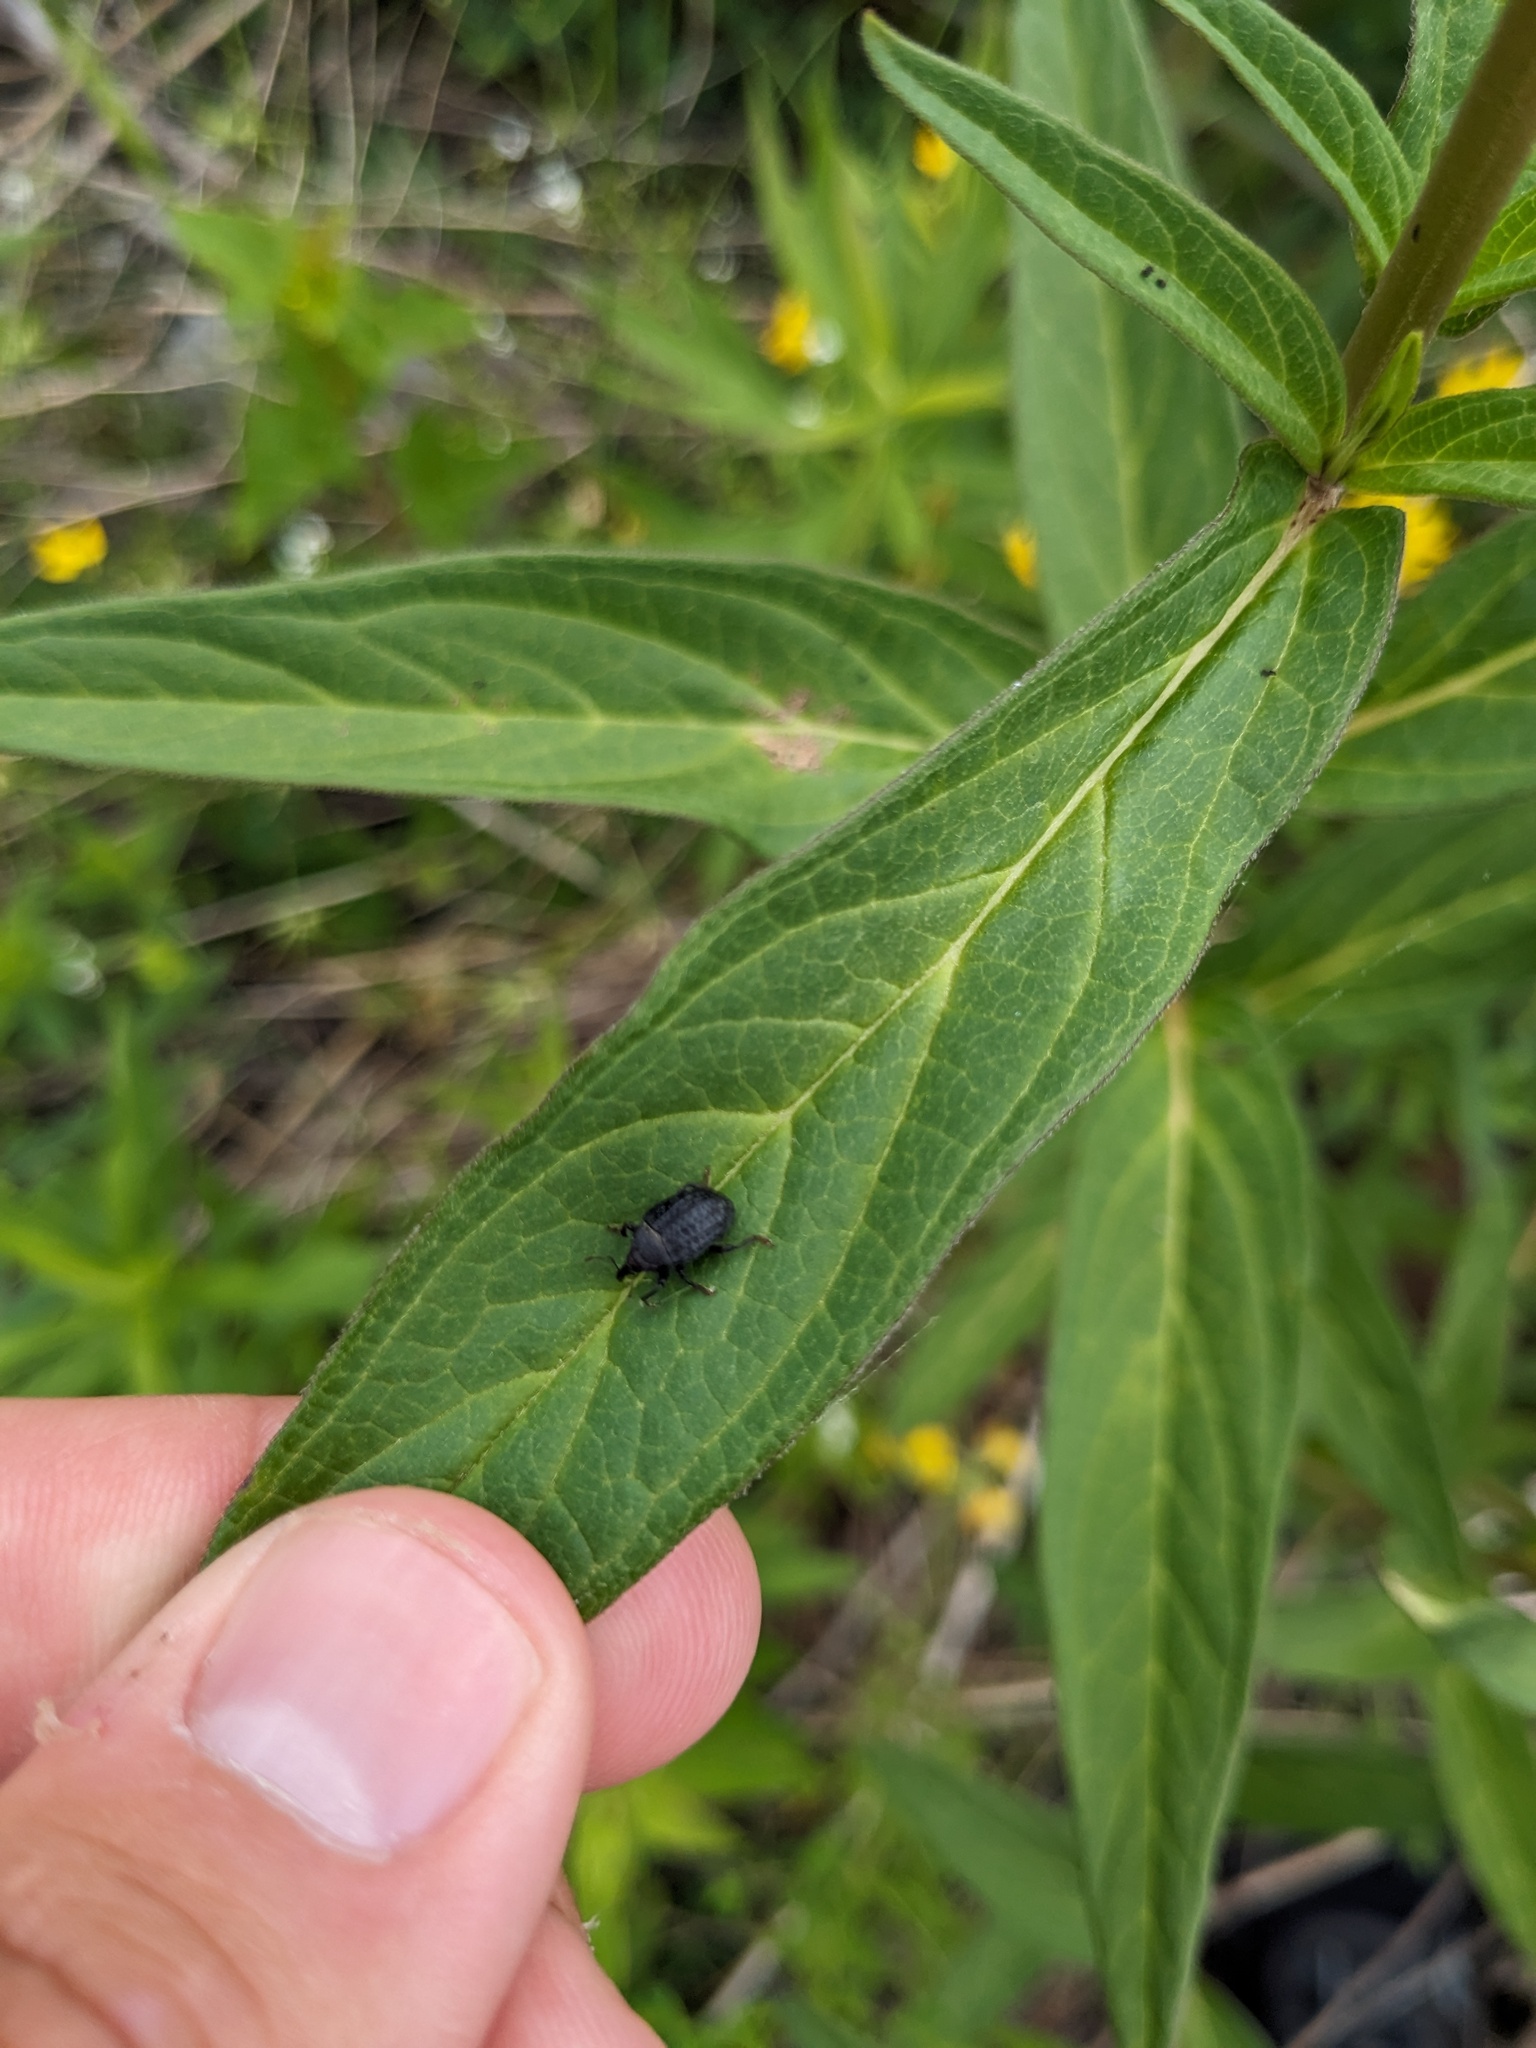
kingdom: Animalia
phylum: Arthropoda
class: Insecta
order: Coleoptera
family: Curculionidae
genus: Rhyssomatus
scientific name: Rhyssomatus lineaticollis
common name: Milkweed stem weevil
